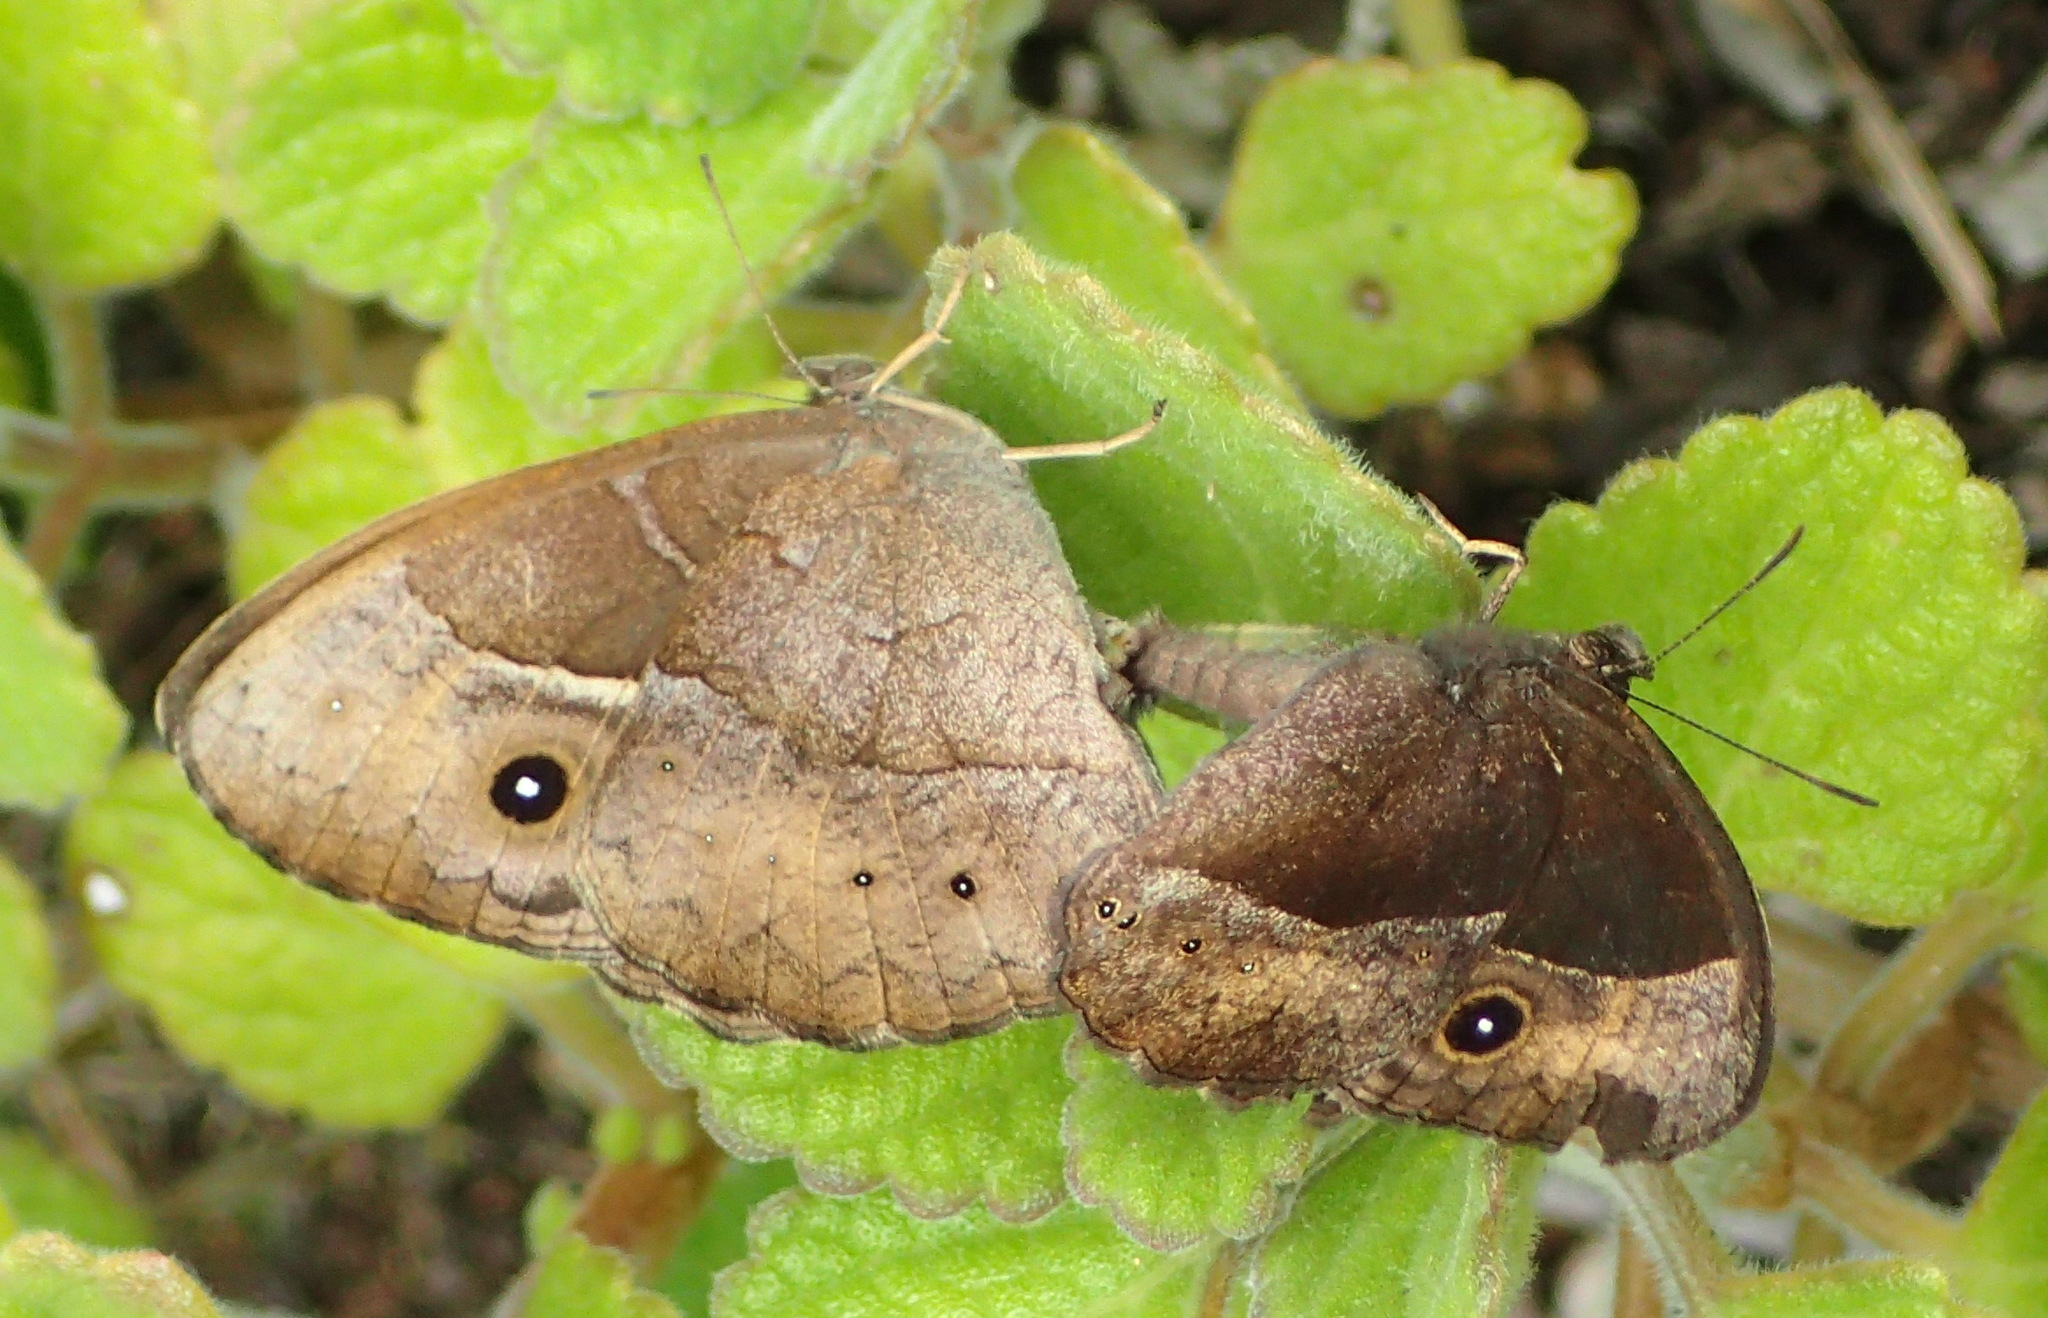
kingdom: Animalia
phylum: Arthropoda
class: Insecta
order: Lepidoptera
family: Nymphalidae
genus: Mycalesis
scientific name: Mycalesis rhacotis
